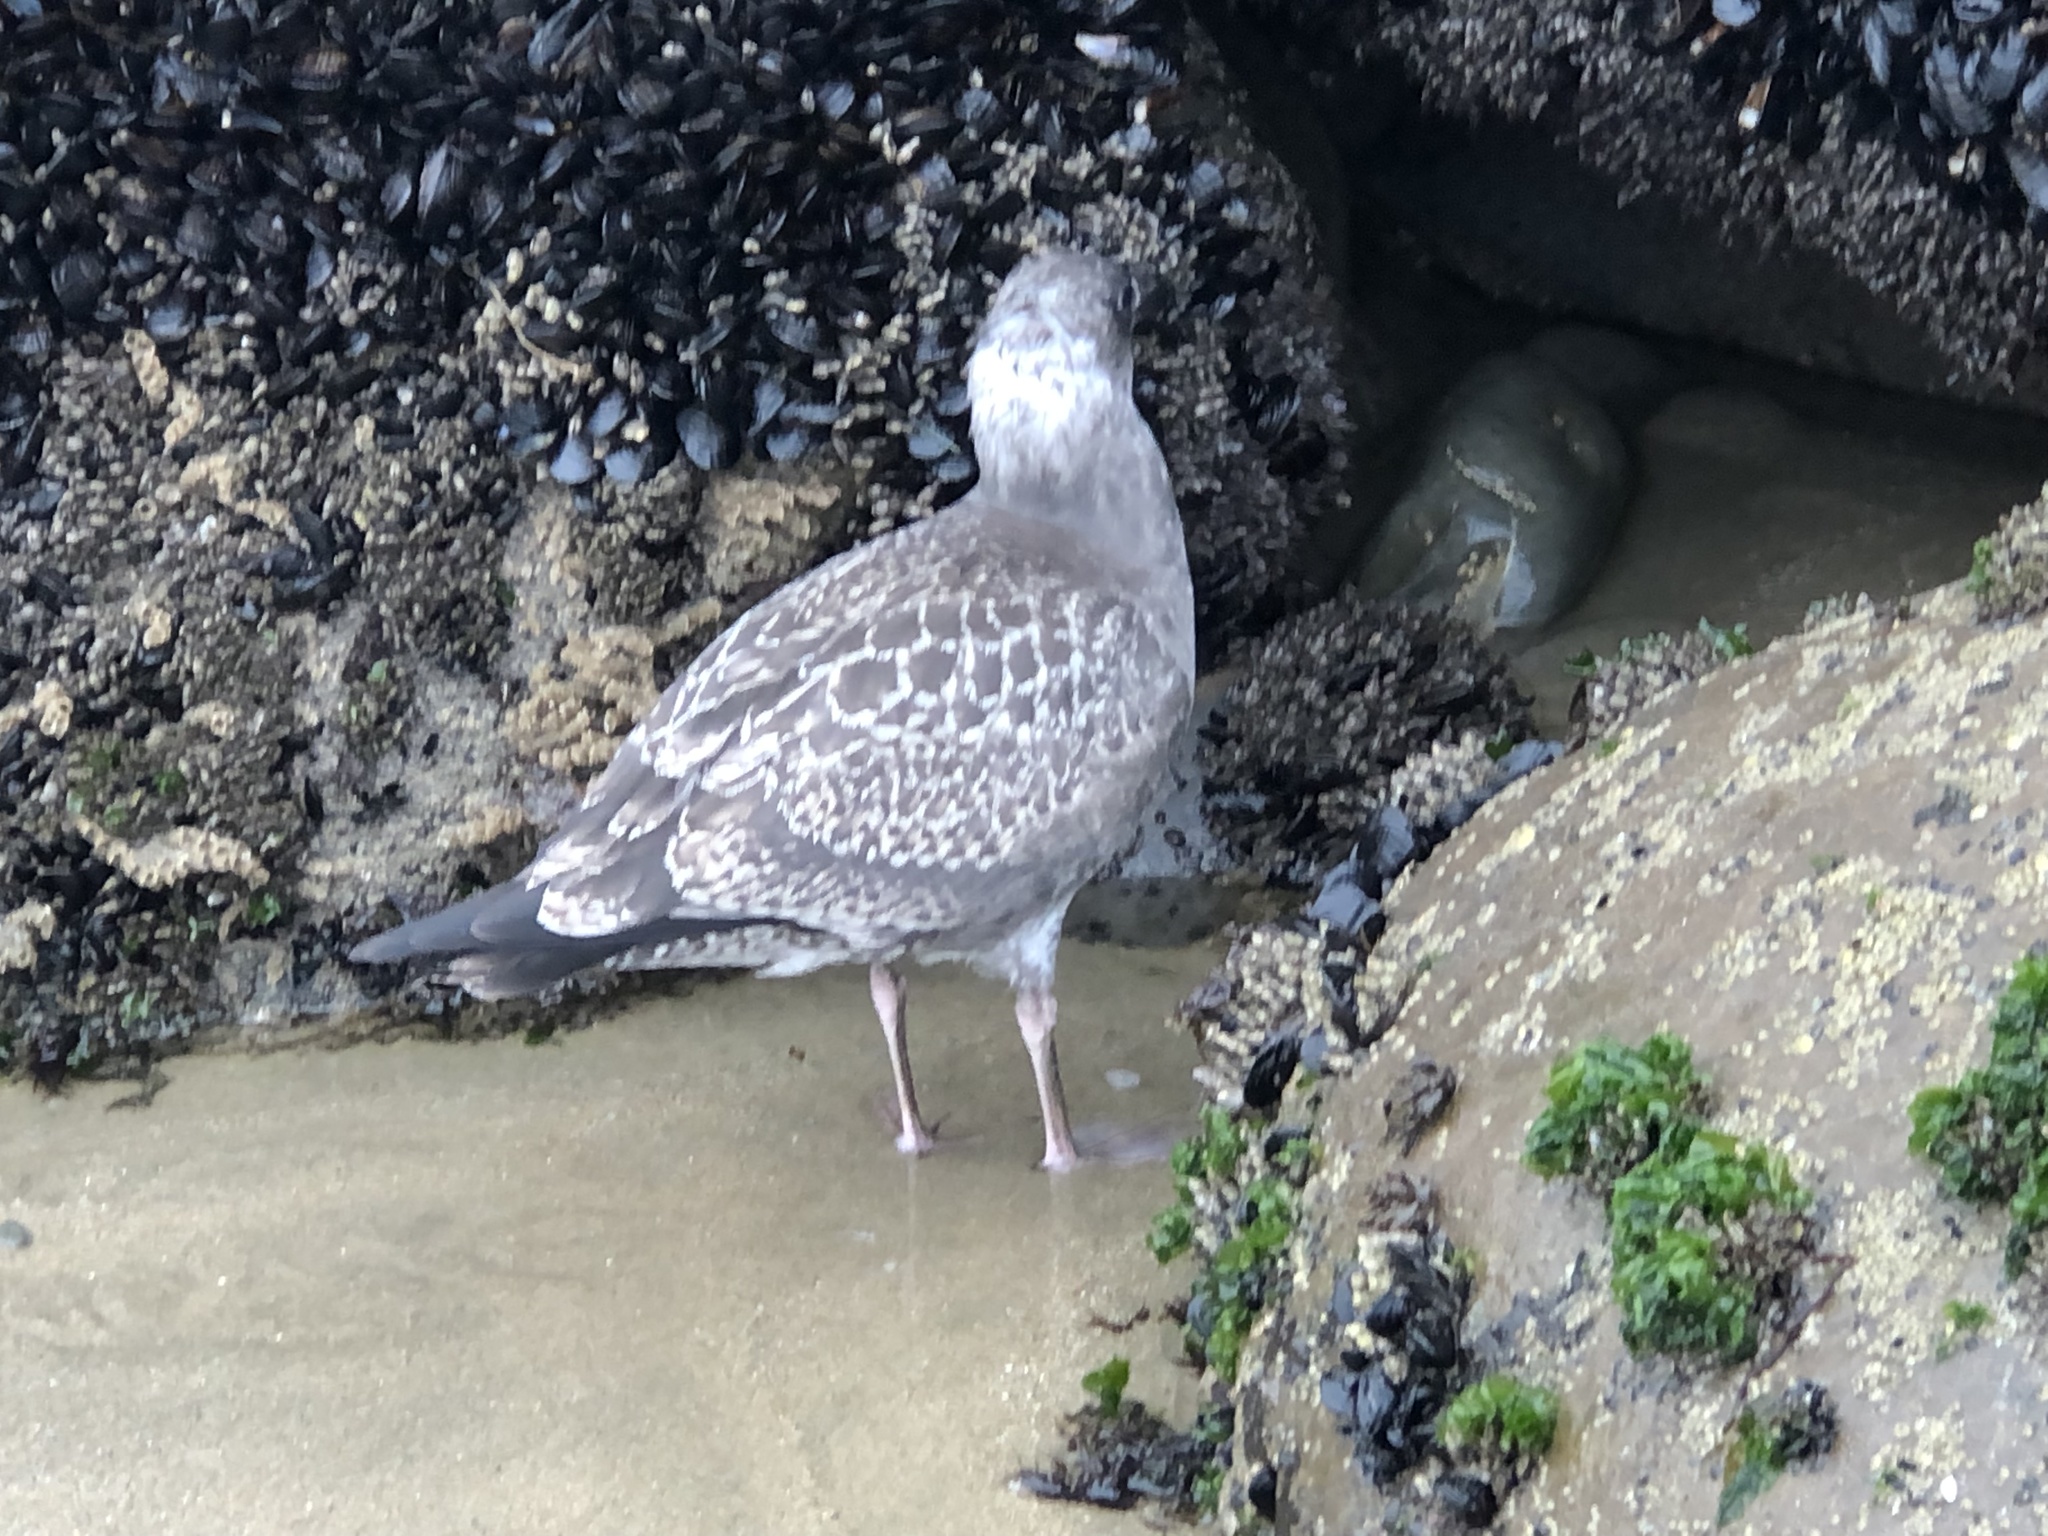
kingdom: Animalia
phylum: Chordata
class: Aves
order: Charadriiformes
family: Laridae
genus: Larus
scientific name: Larus occidentalis
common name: Western gull
